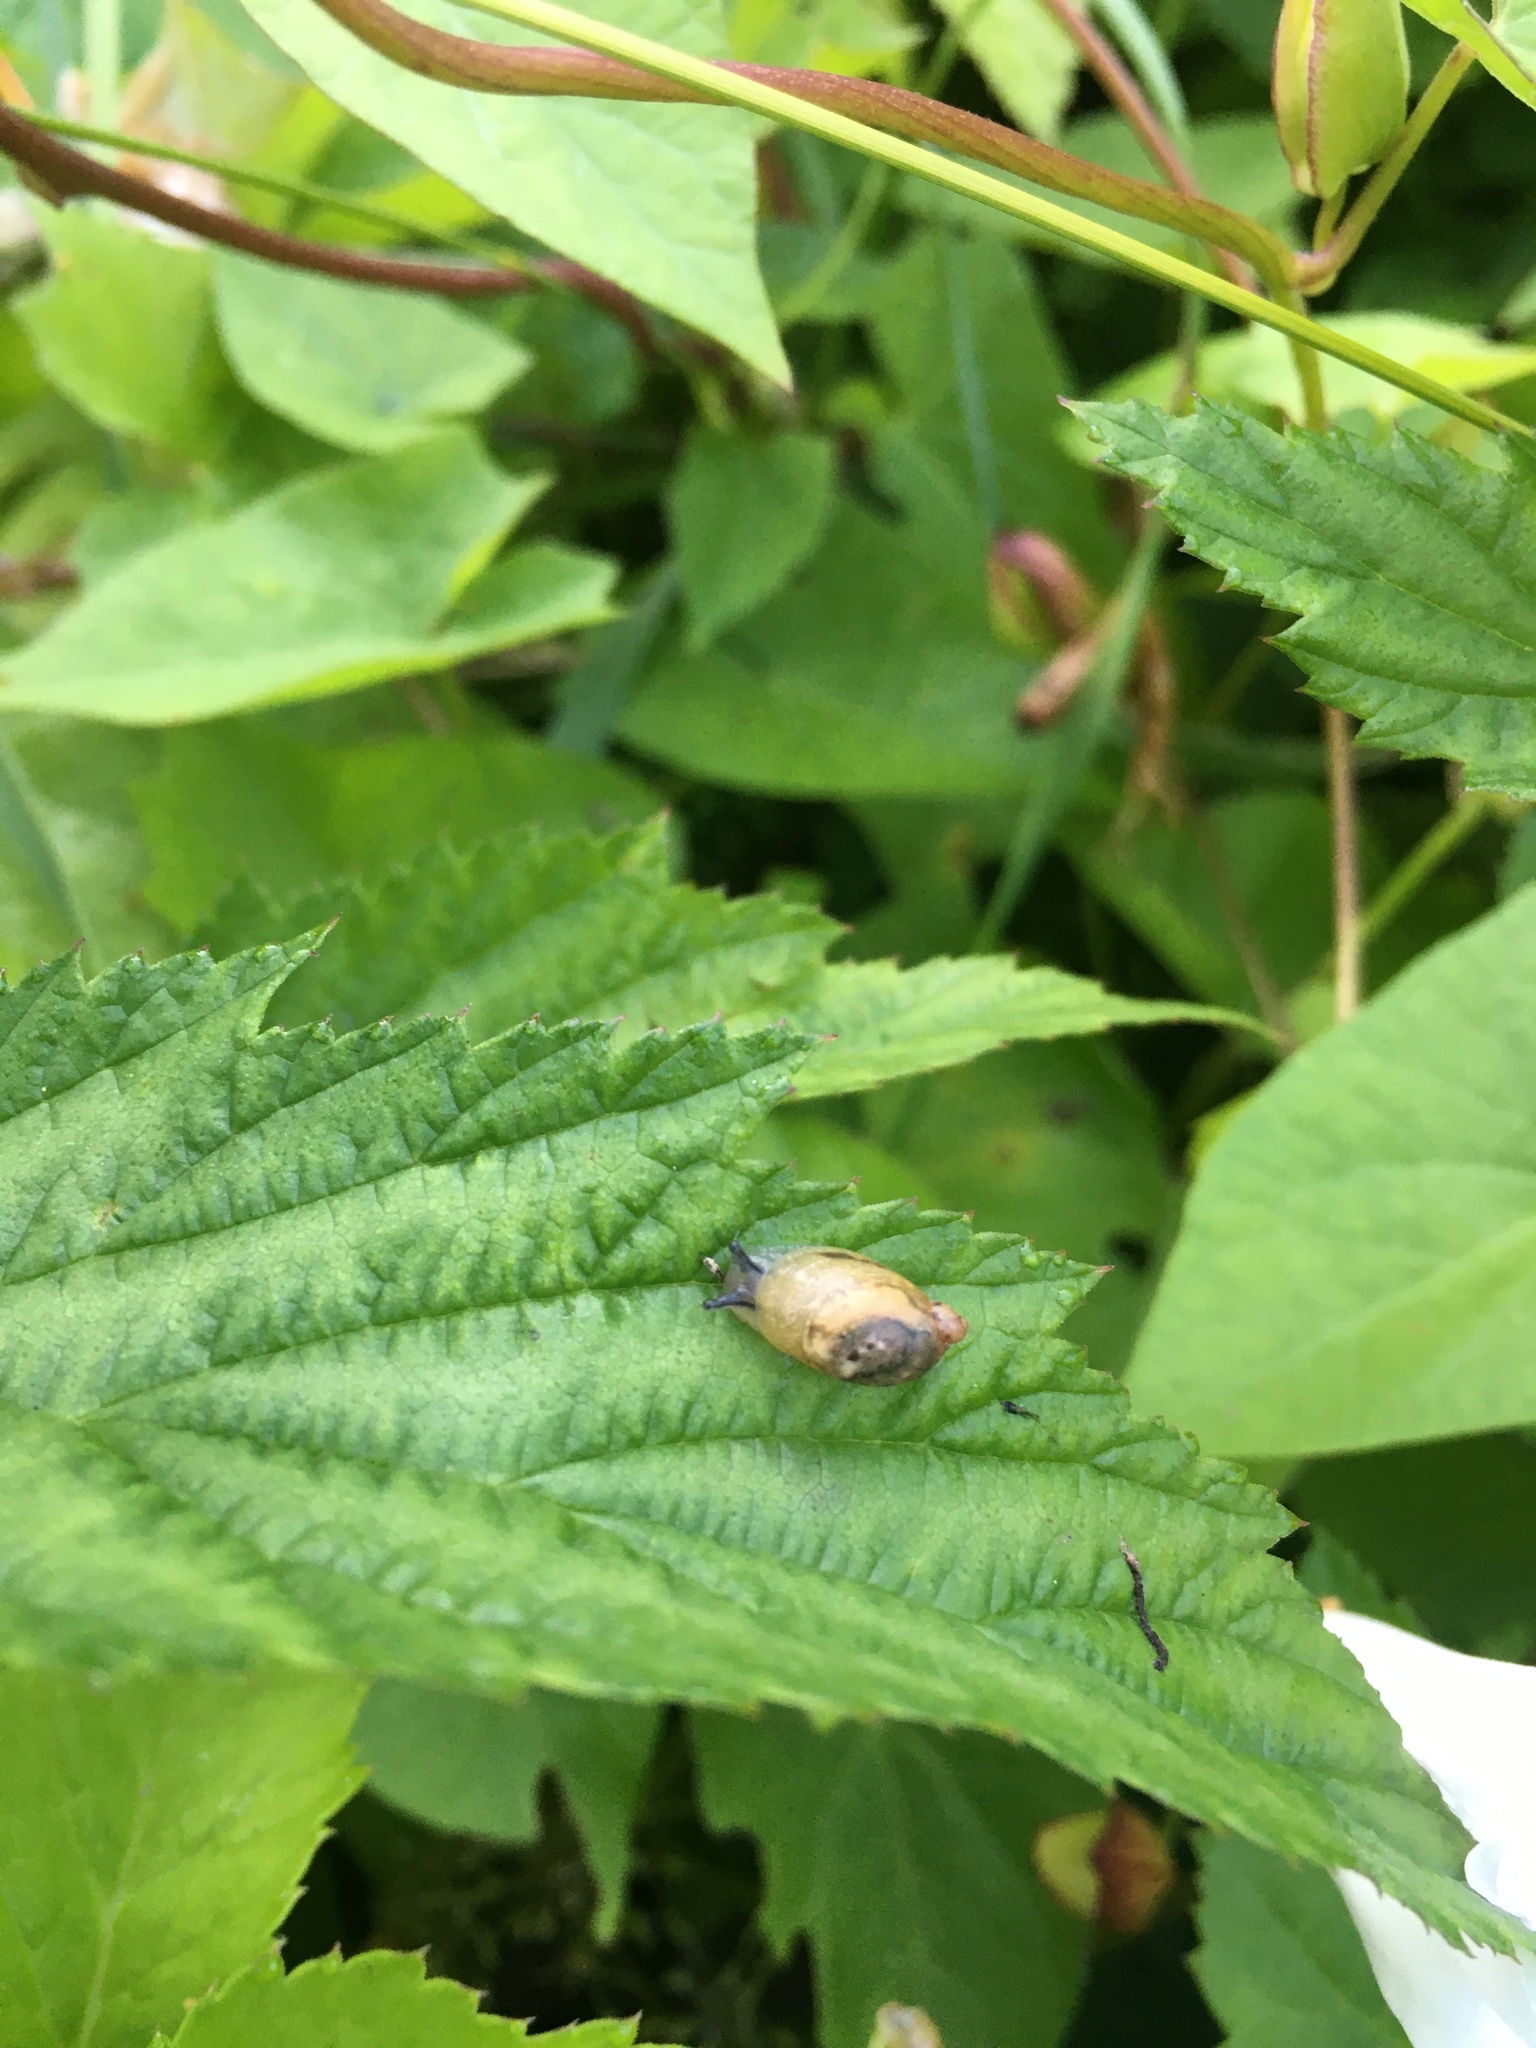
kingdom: Animalia
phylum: Mollusca
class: Gastropoda
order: Stylommatophora
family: Succineidae
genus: Succinea
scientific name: Succinea putris
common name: European ambersnail
